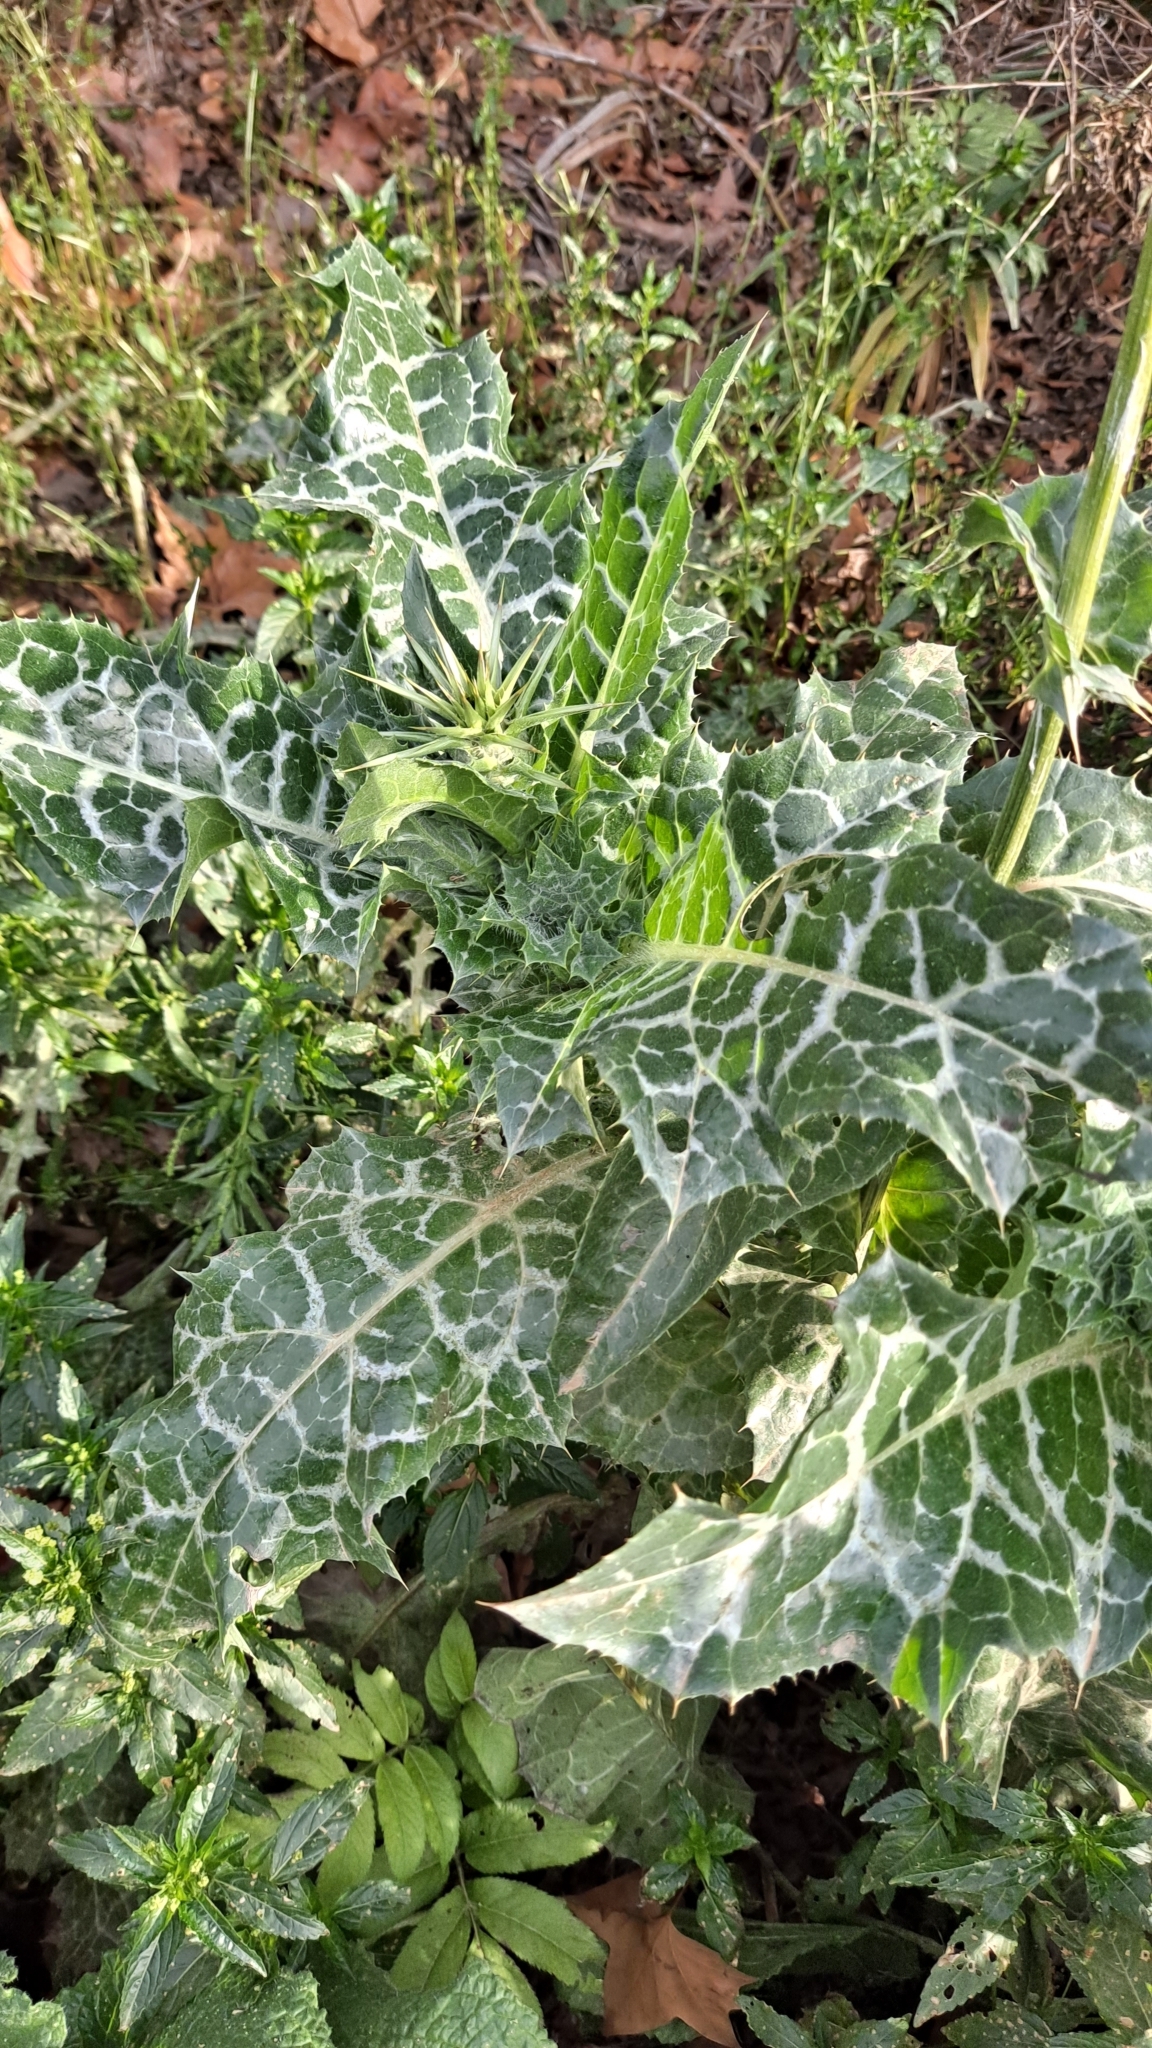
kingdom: Plantae
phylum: Tracheophyta
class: Magnoliopsida
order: Asterales
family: Asteraceae
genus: Silybum
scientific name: Silybum marianum
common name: Milk thistle
